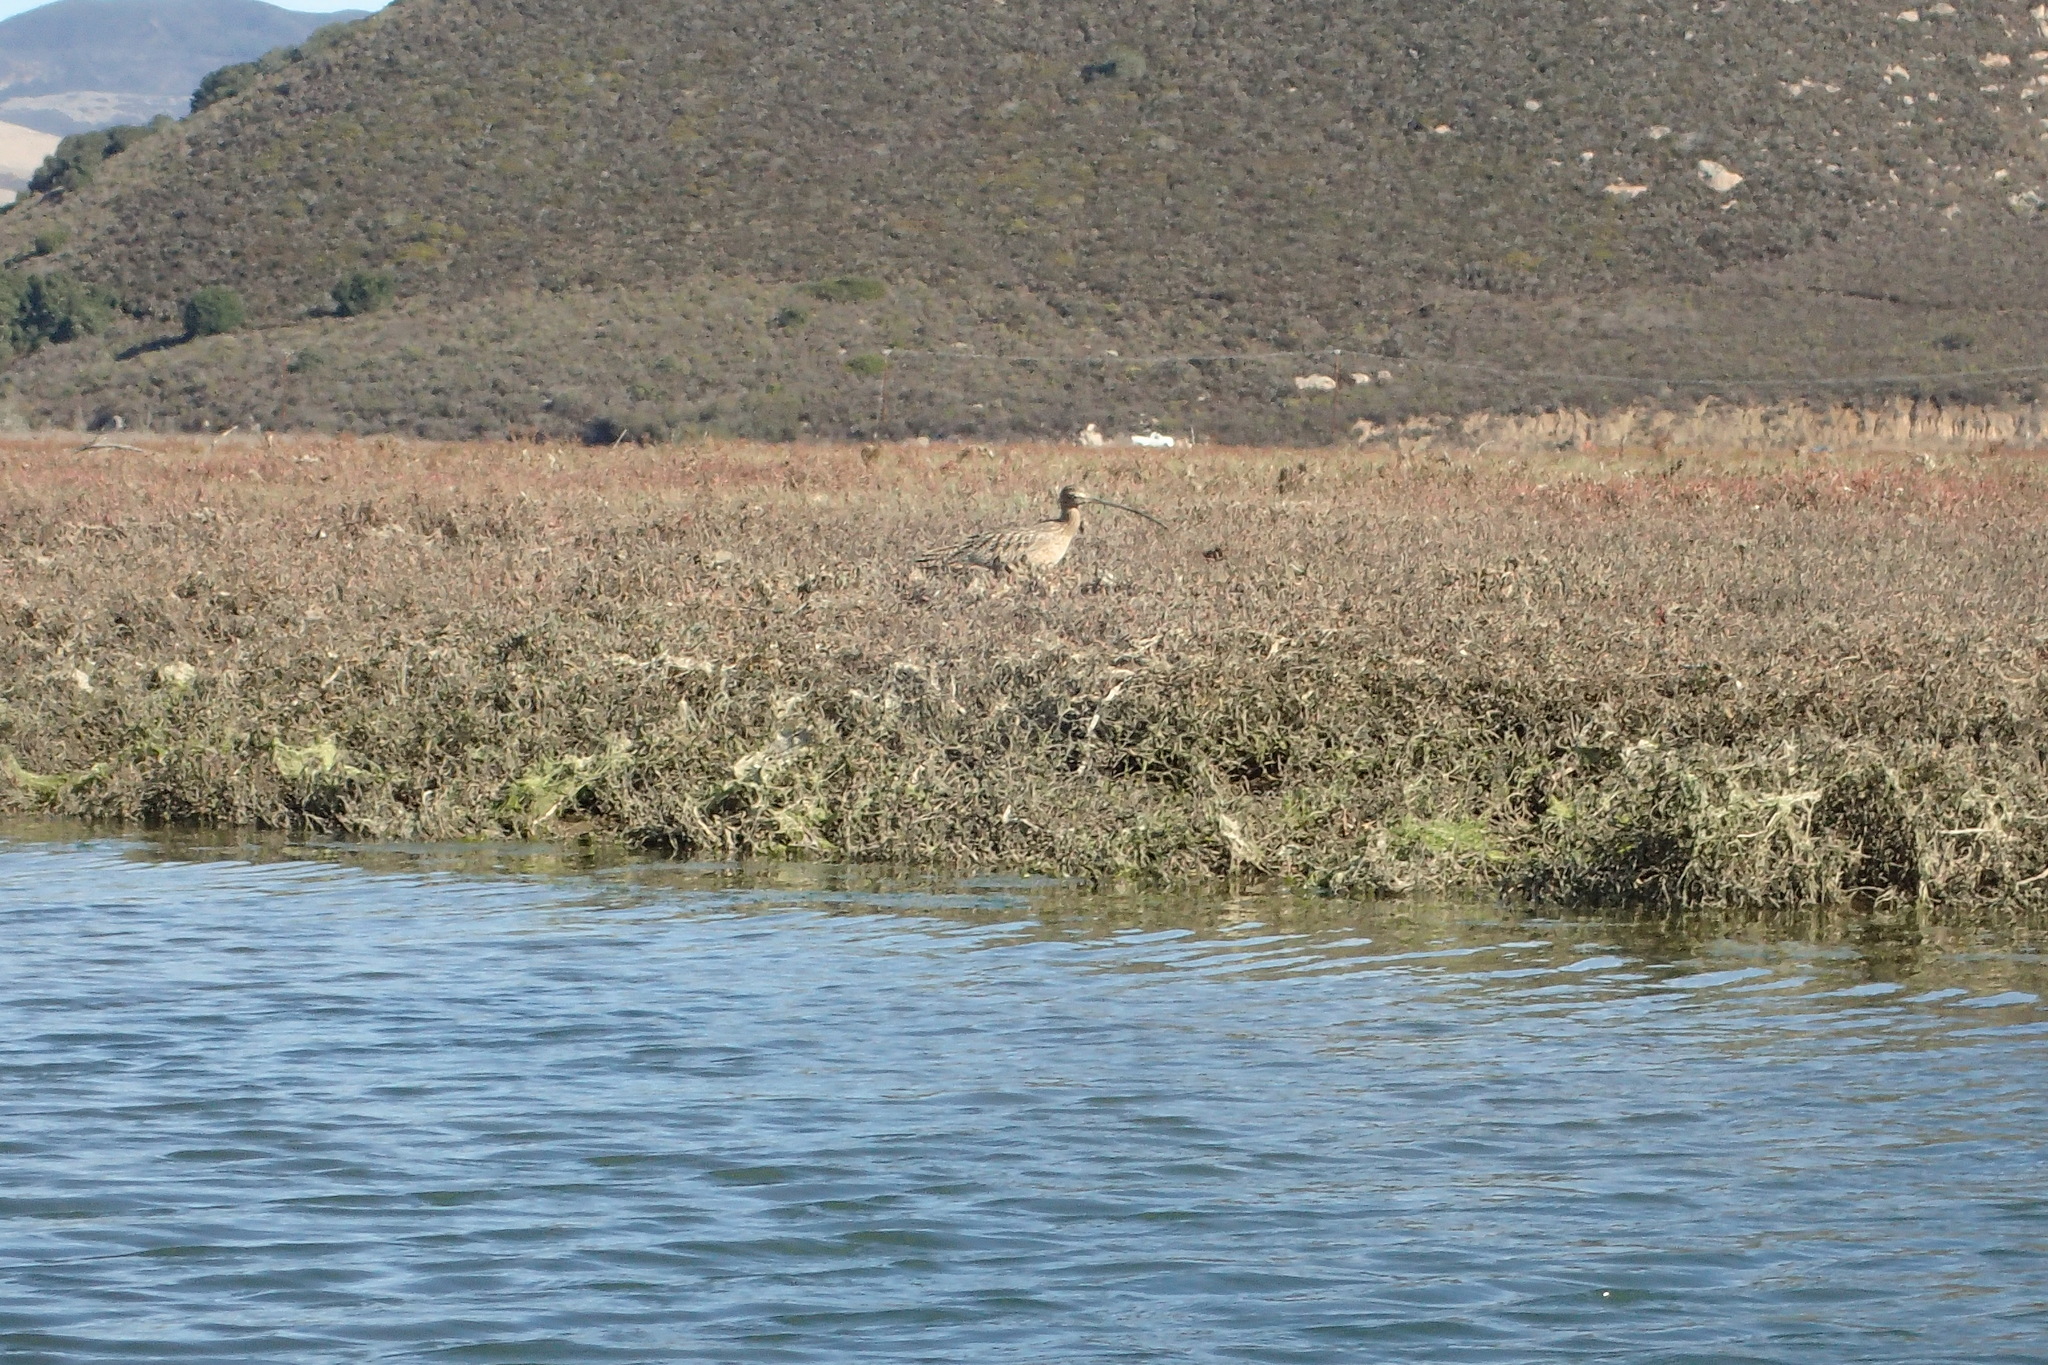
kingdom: Animalia
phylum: Chordata
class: Aves
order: Charadriiformes
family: Scolopacidae
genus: Numenius
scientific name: Numenius americanus
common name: Long-billed curlew
